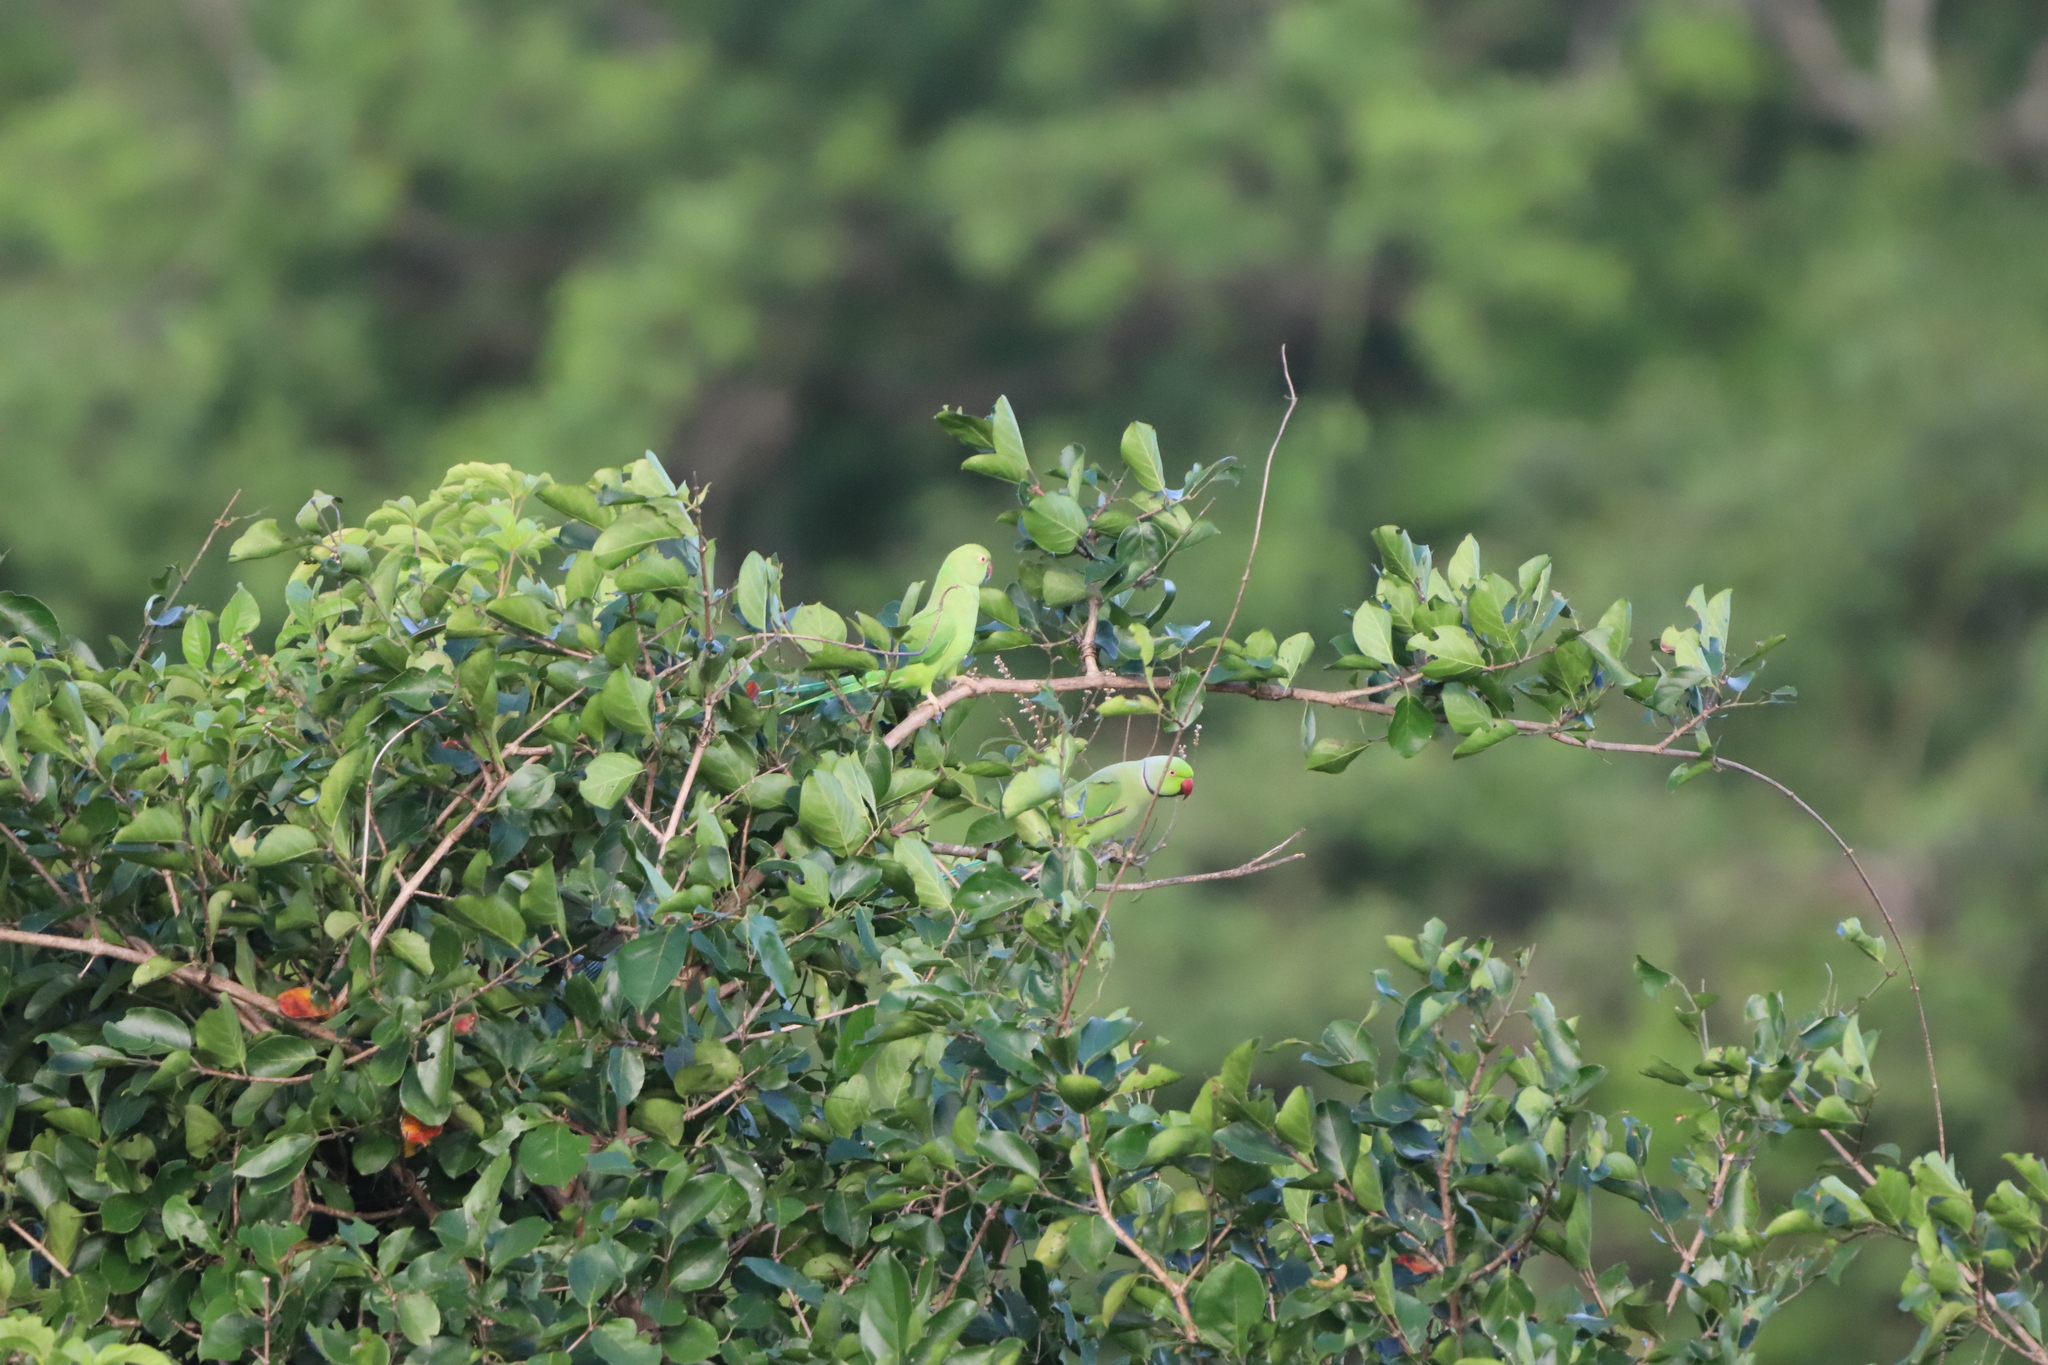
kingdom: Animalia
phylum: Chordata
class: Aves
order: Psittaciformes
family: Psittacidae
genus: Psittacula
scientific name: Psittacula krameri
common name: Rose-ringed parakeet
